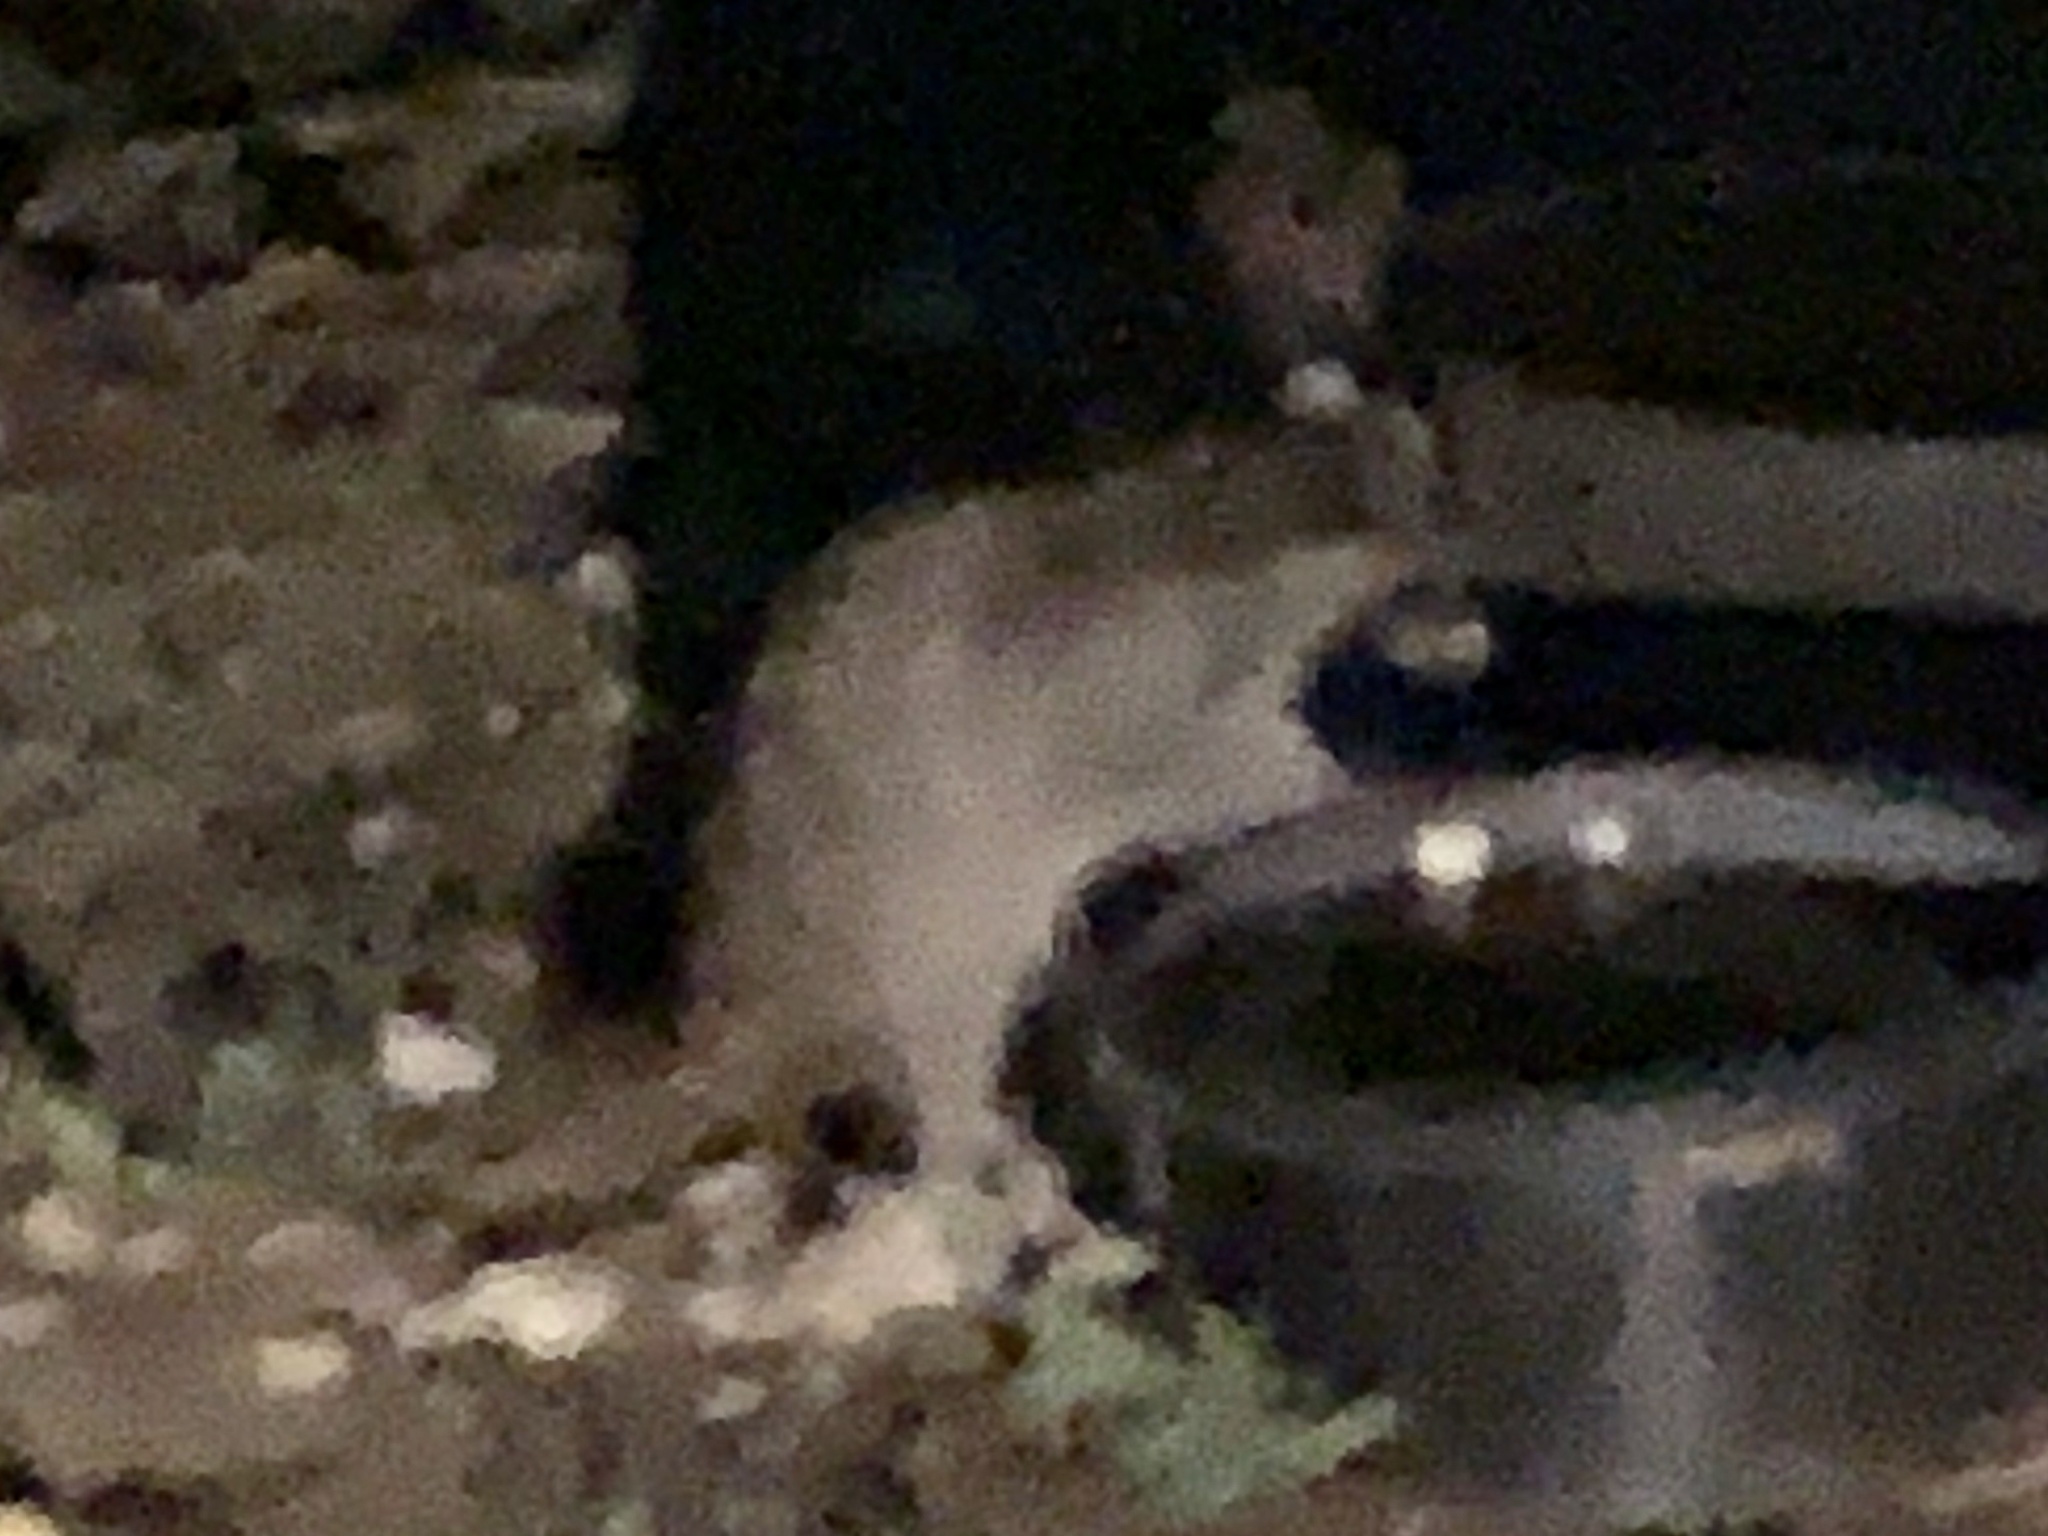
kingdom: Animalia
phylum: Chordata
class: Mammalia
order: Carnivora
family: Procyonidae
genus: Procyon
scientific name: Procyon lotor
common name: Raccoon
